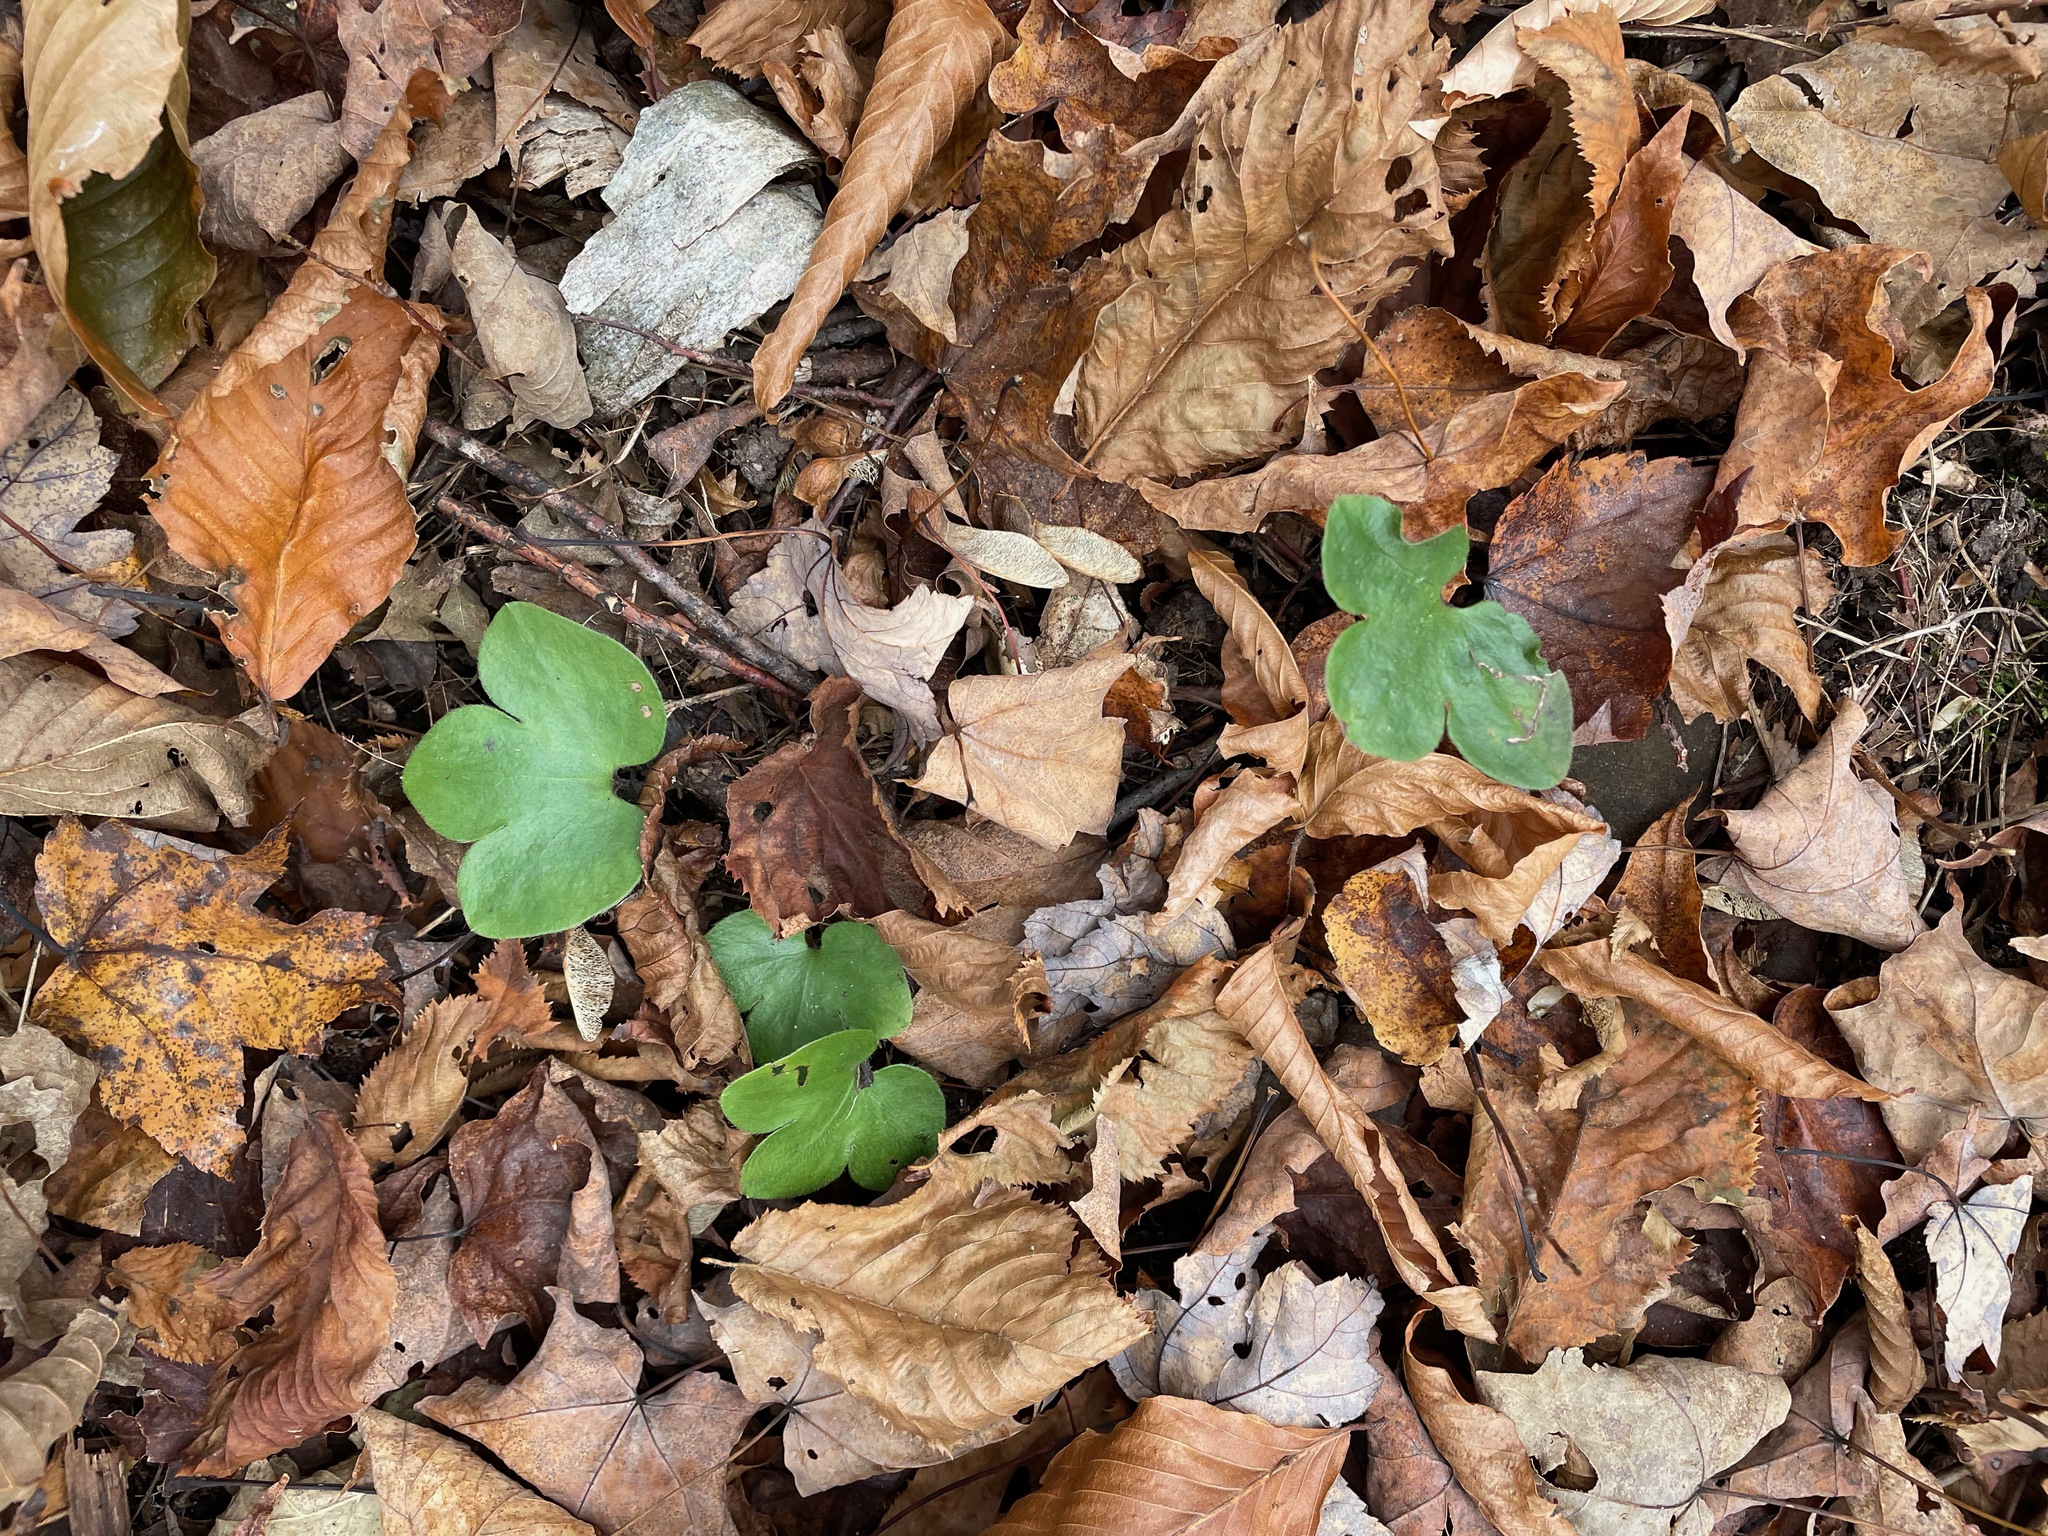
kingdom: Plantae
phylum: Tracheophyta
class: Magnoliopsida
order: Ranunculales
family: Ranunculaceae
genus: Hepatica
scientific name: Hepatica americana
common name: American hepatica
